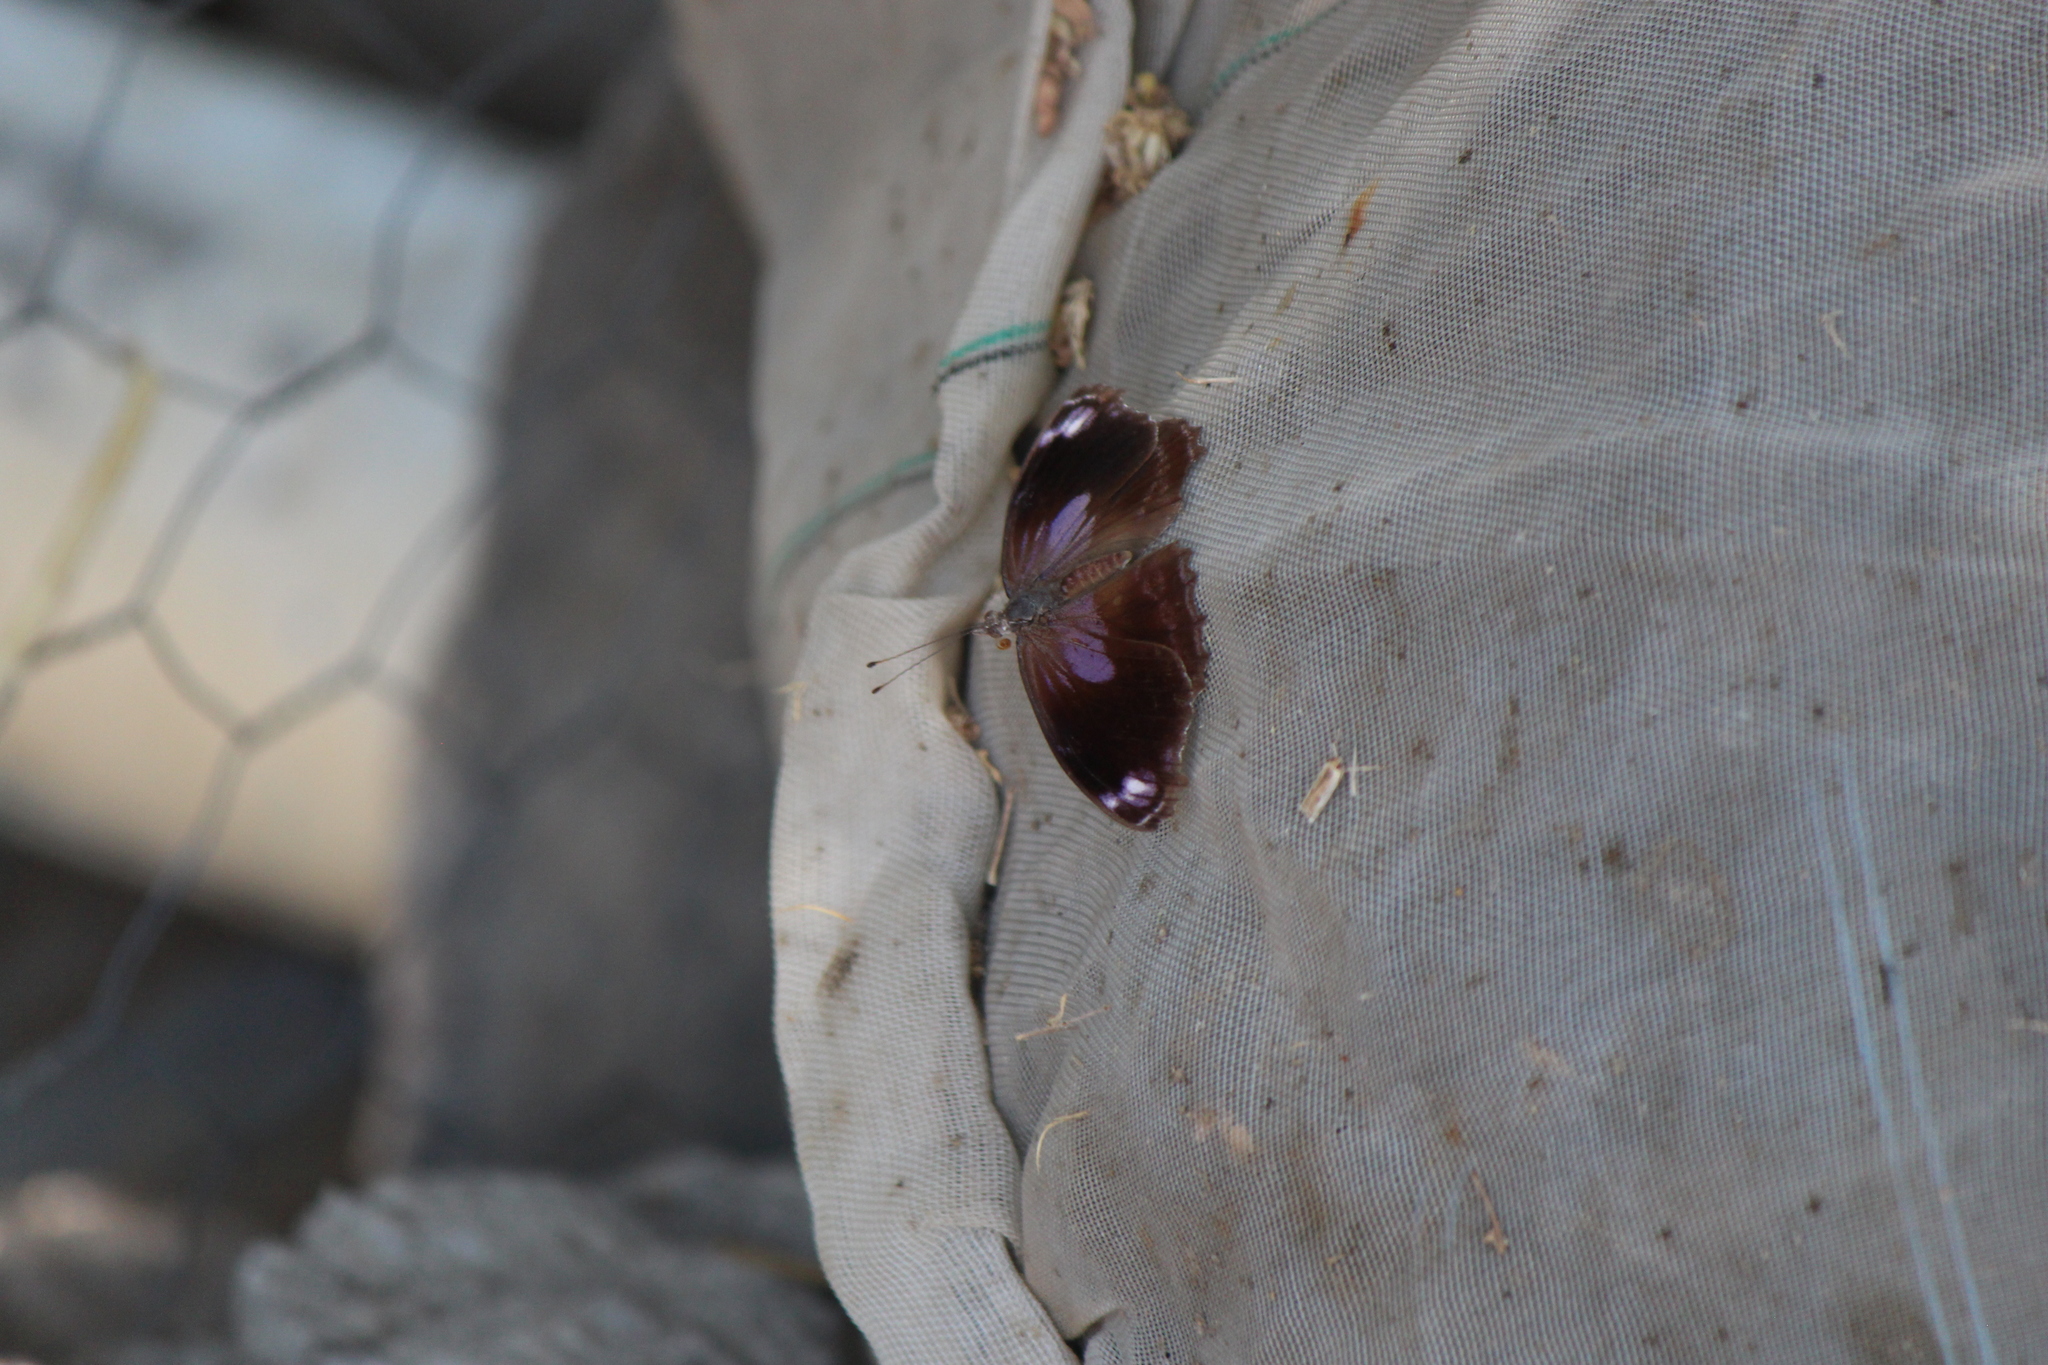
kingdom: Animalia
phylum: Arthropoda
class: Insecta
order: Lepidoptera
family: Nymphalidae
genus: Myscelia
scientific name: Myscelia cyananthe
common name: Blackened bluewing
